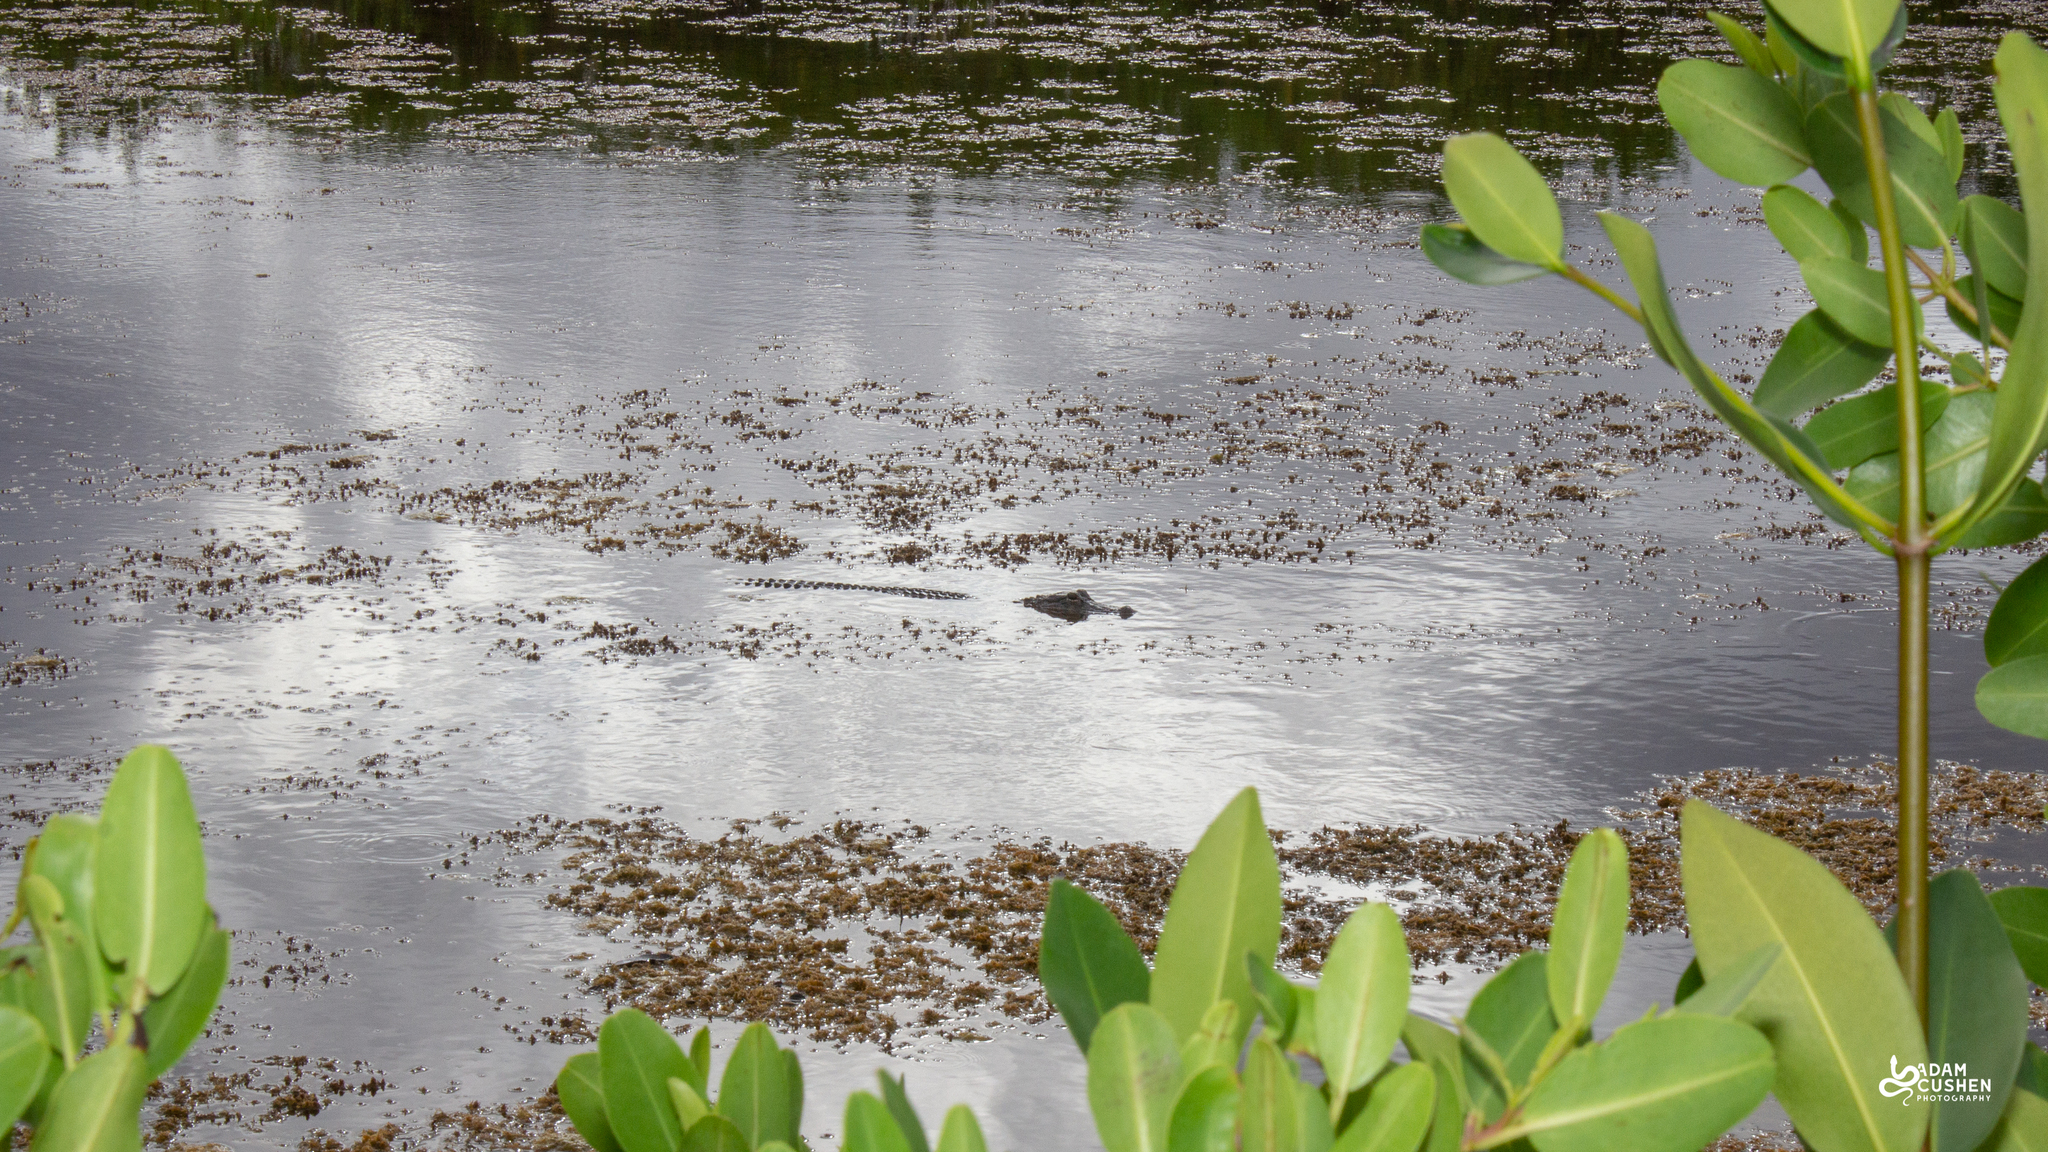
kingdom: Animalia
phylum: Chordata
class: Crocodylia
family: Alligatoridae
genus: Alligator
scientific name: Alligator mississippiensis
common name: American alligator
